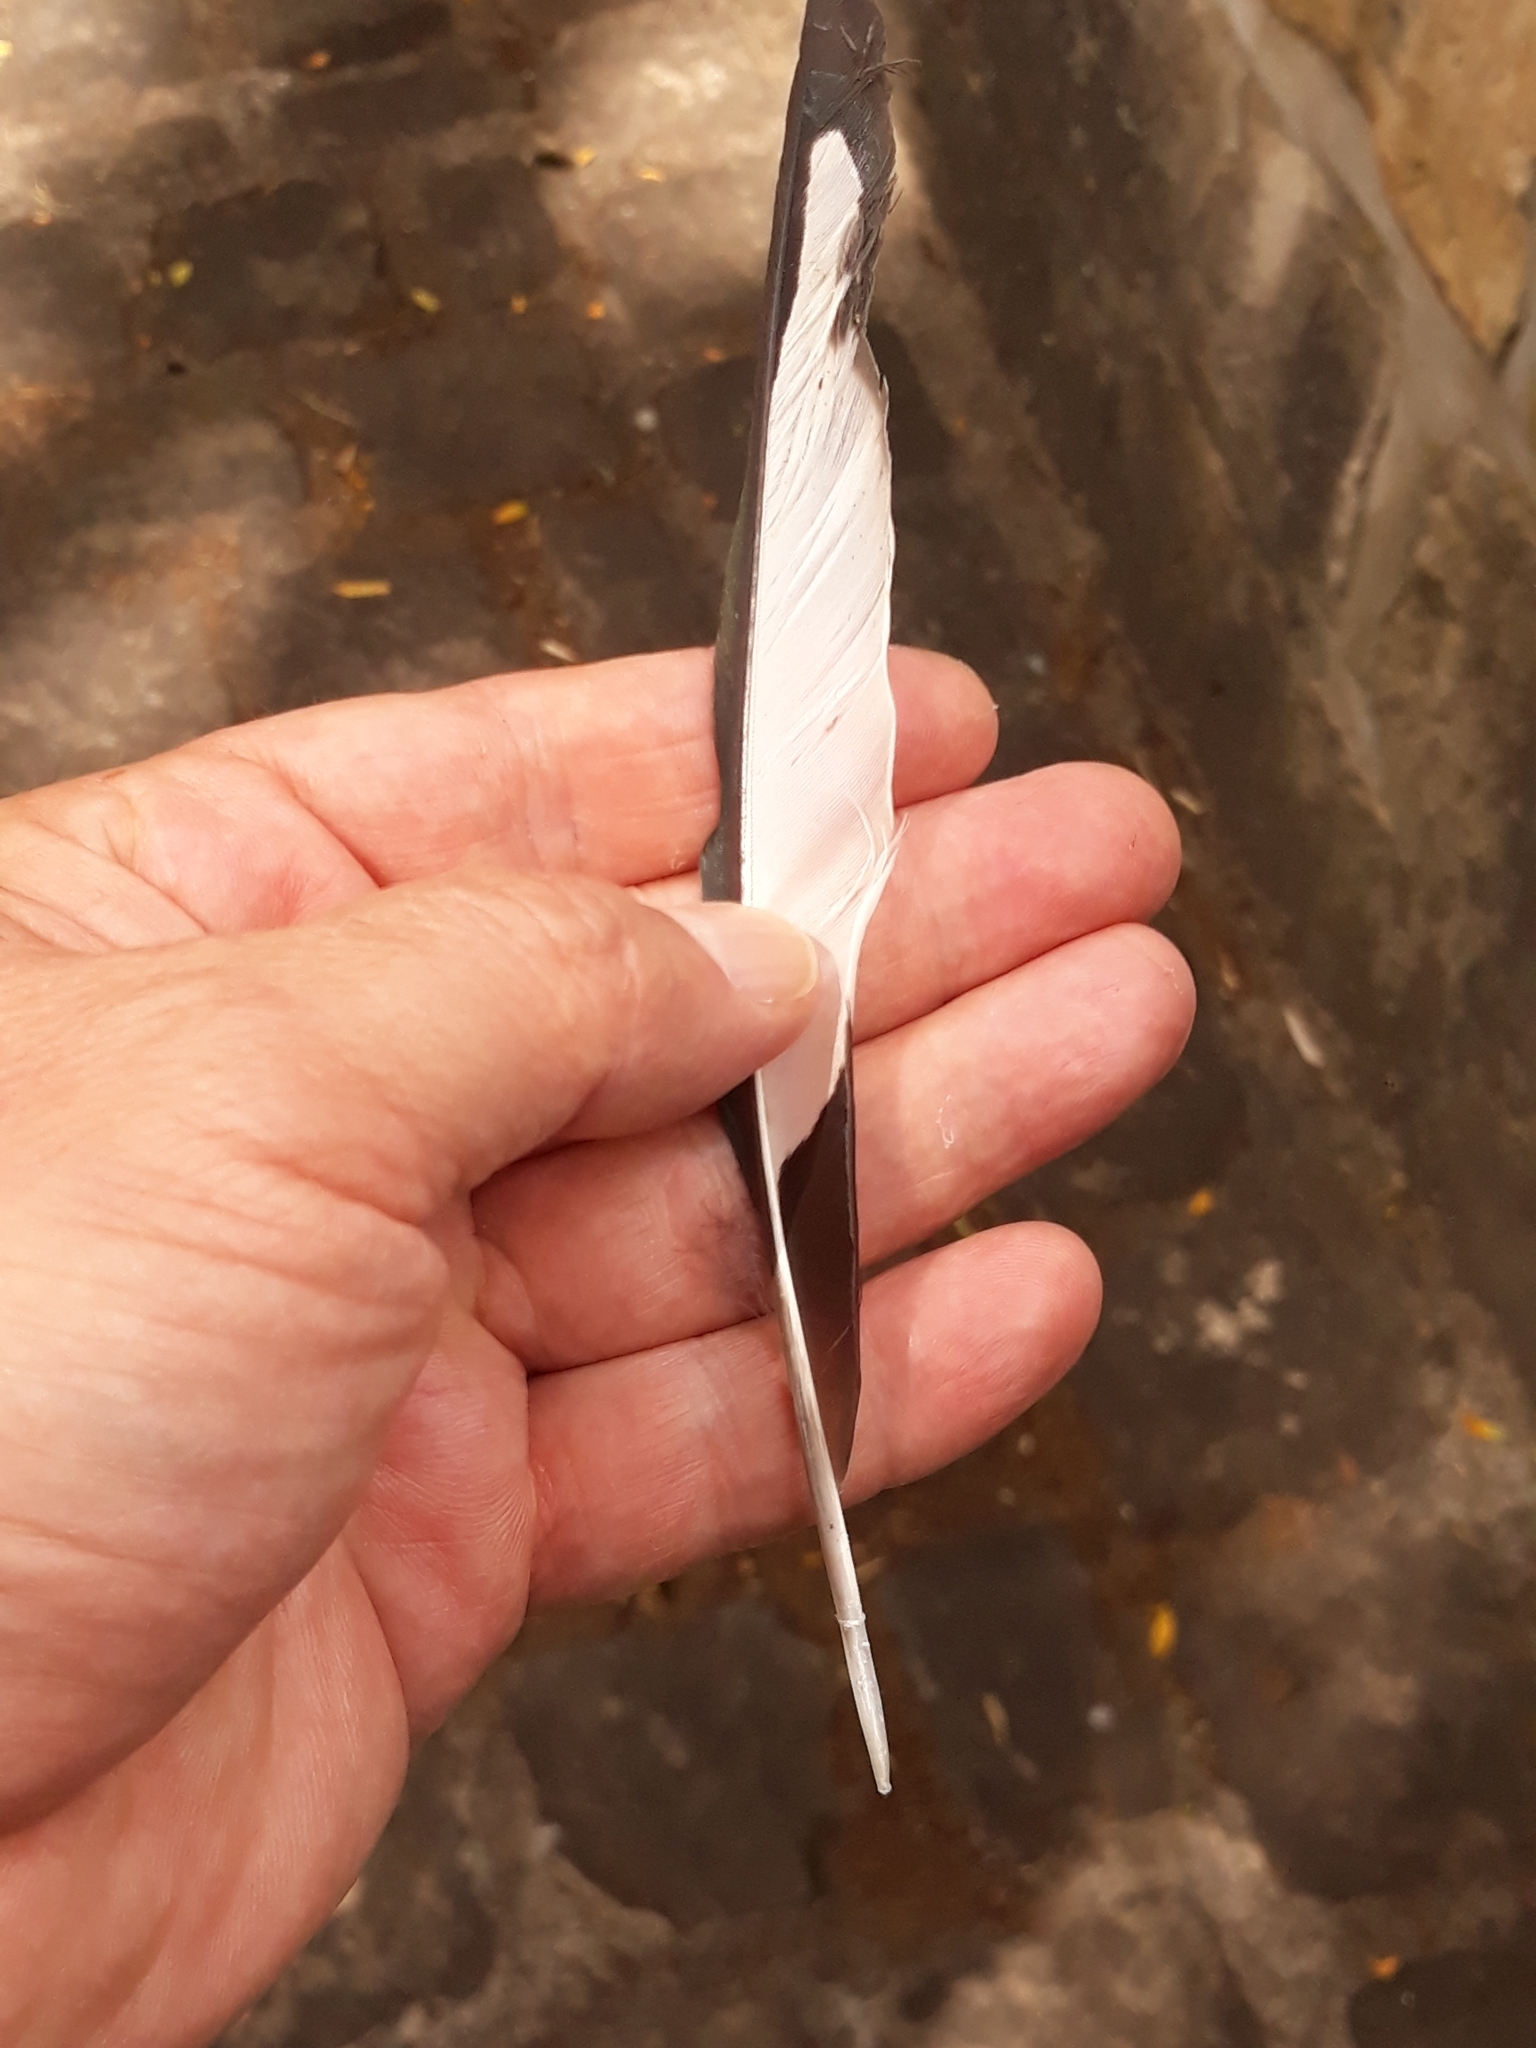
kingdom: Animalia
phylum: Chordata
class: Aves
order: Passeriformes
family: Corvidae
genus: Pica
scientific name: Pica pica
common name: Eurasian magpie
